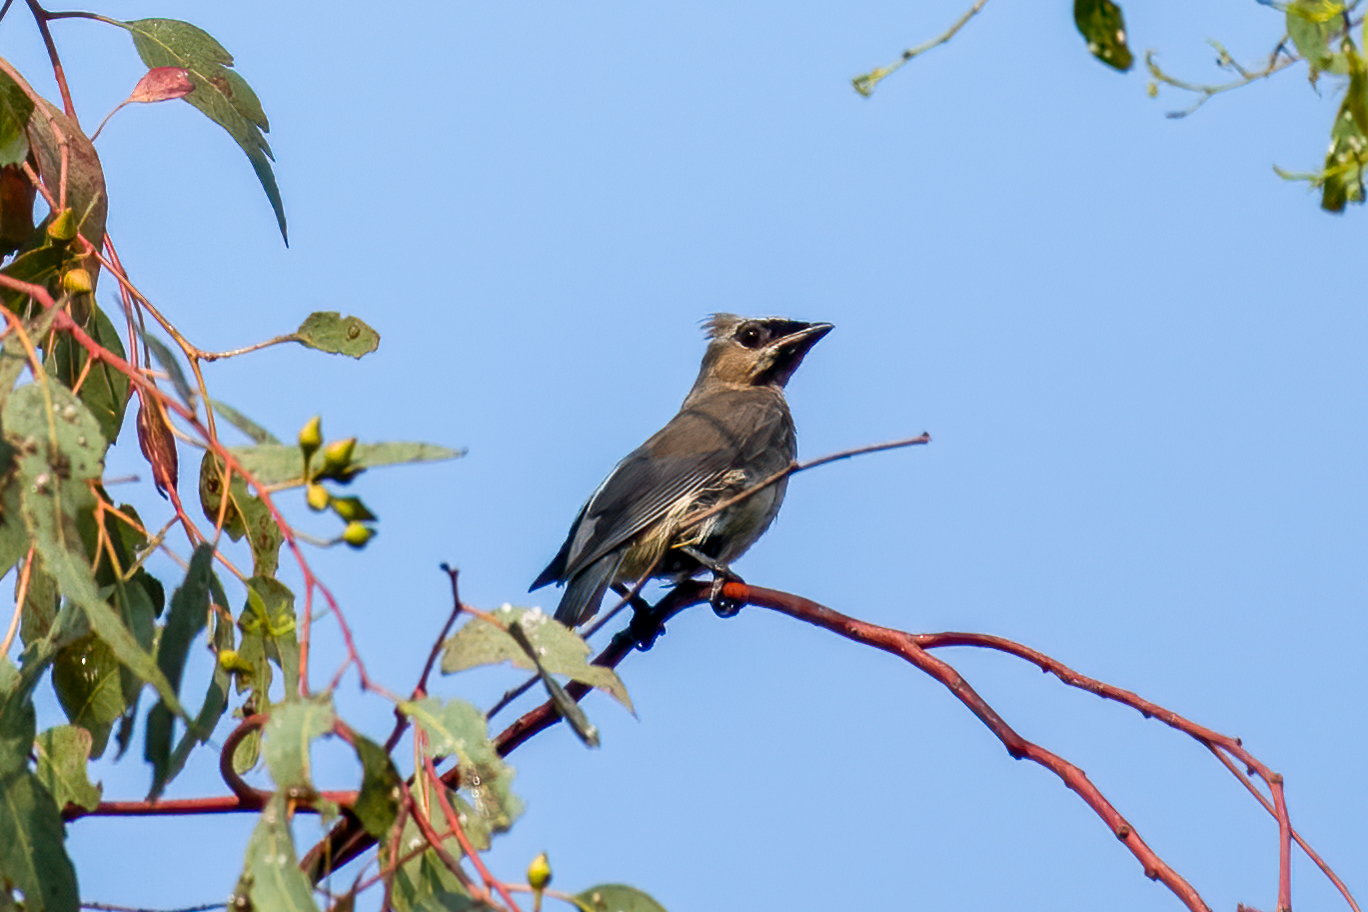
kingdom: Animalia
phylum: Chordata
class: Aves
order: Passeriformes
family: Bombycillidae
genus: Bombycilla
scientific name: Bombycilla cedrorum
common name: Cedar waxwing
